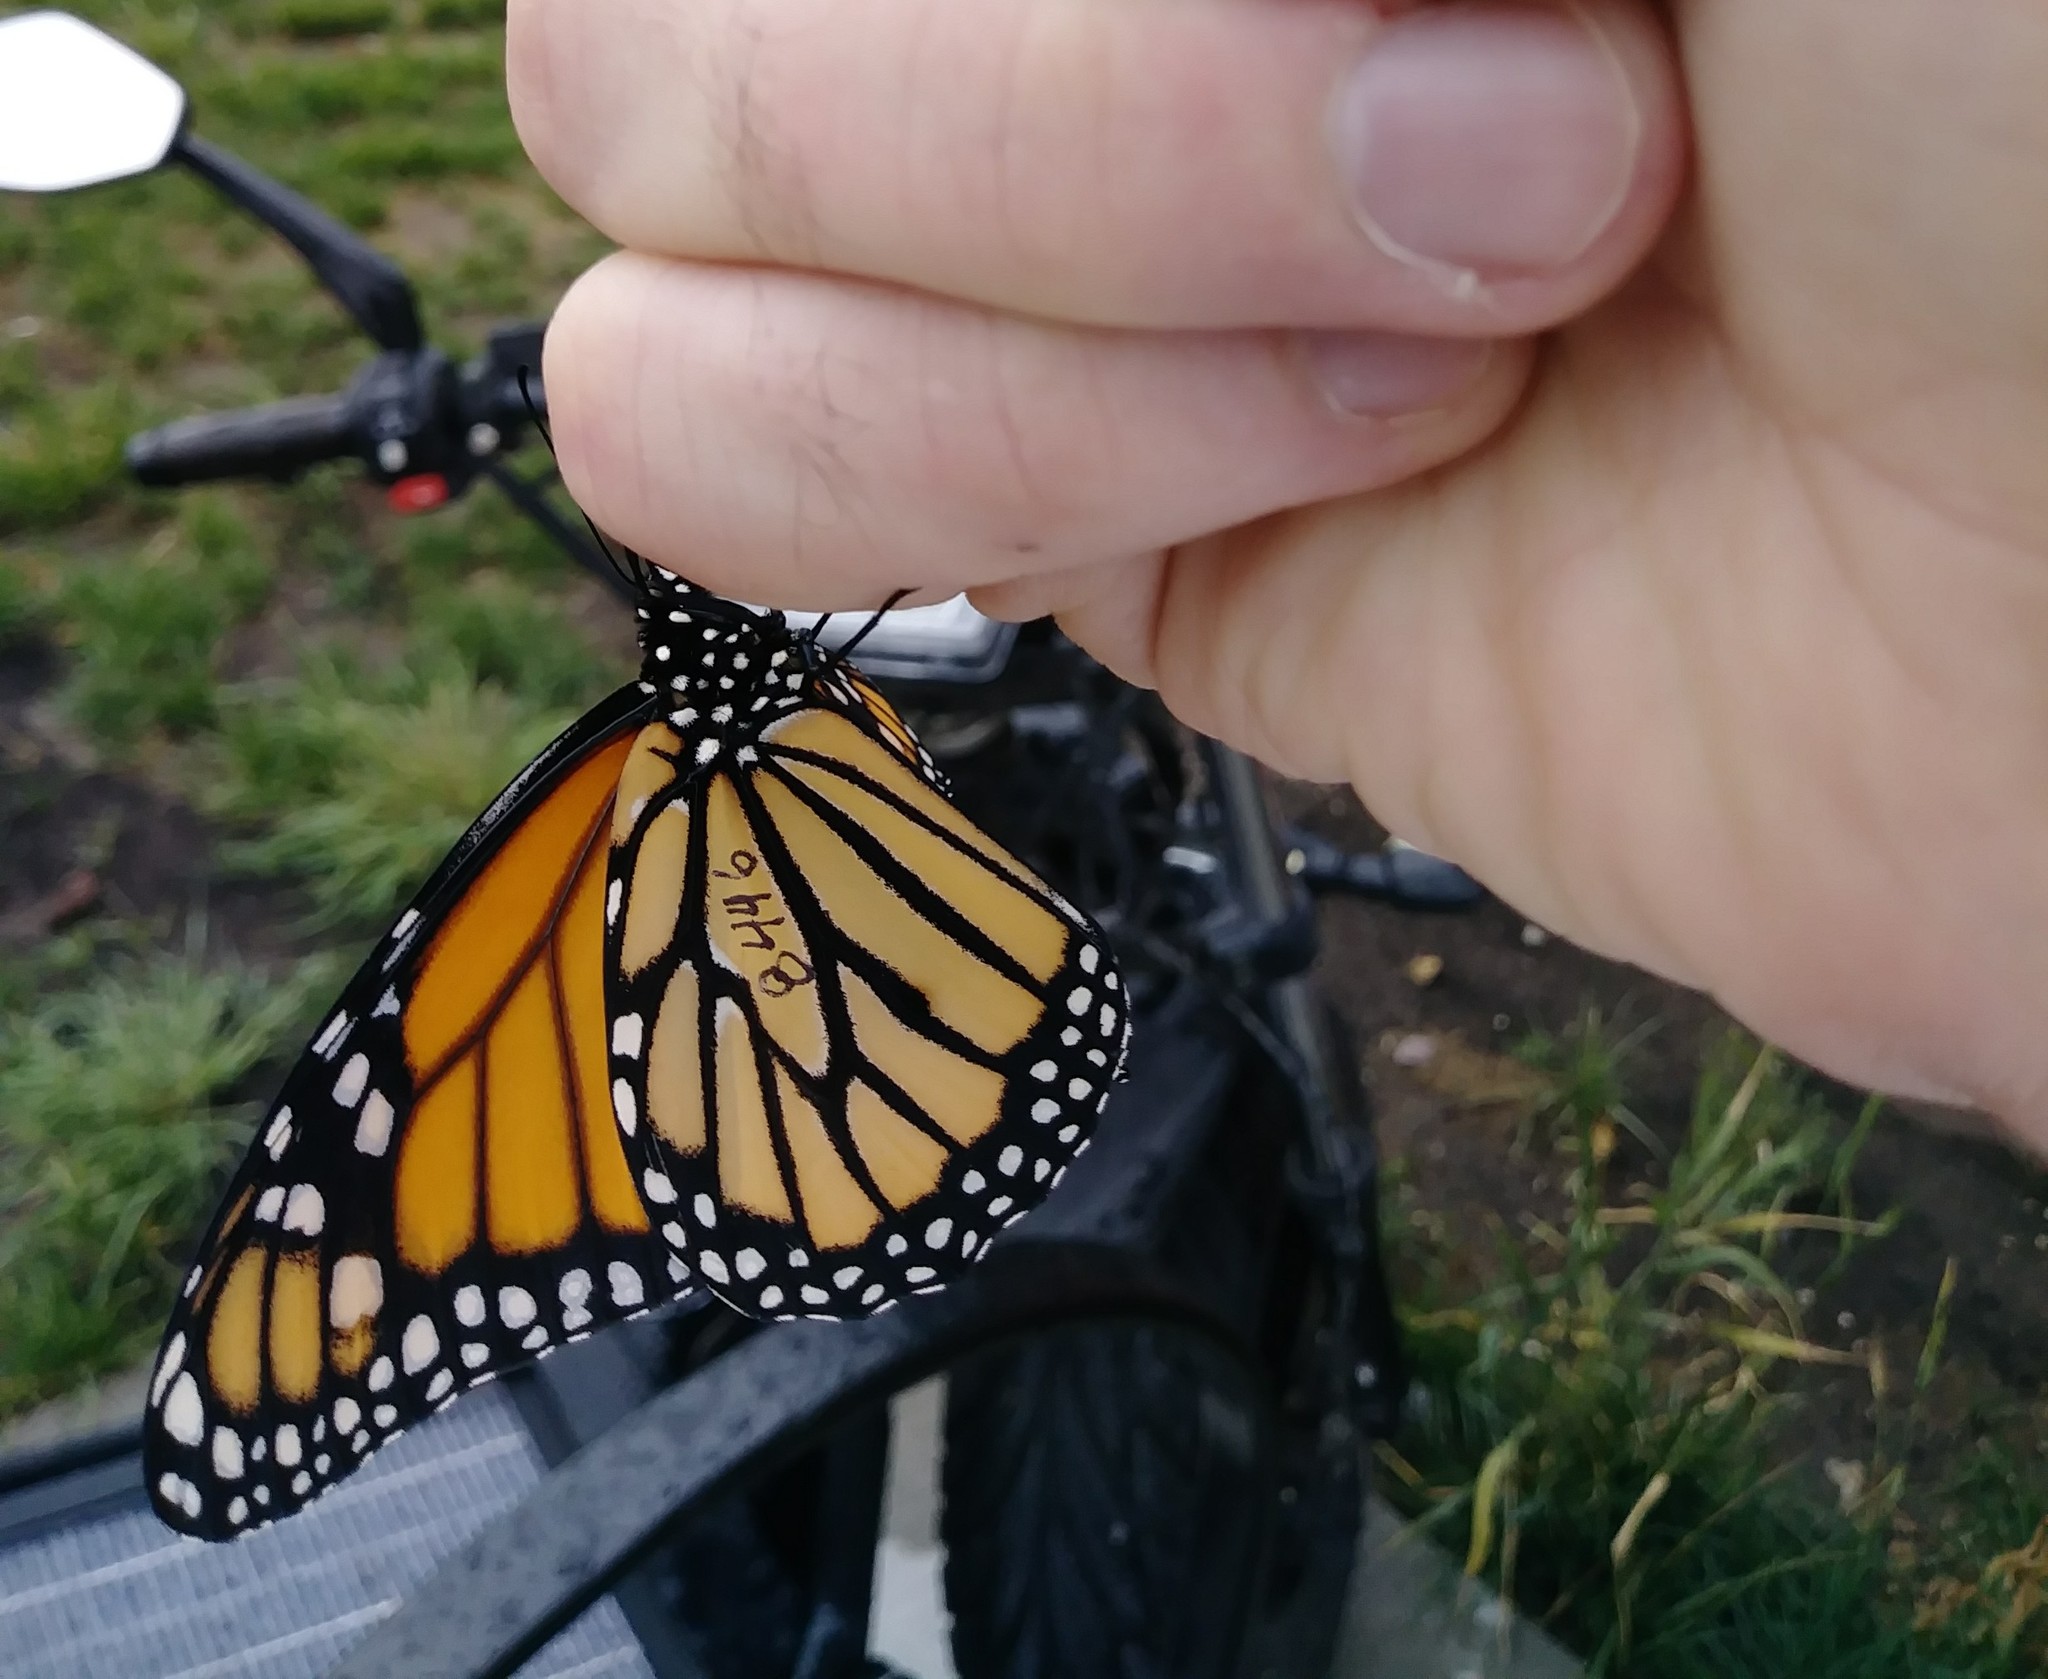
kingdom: Animalia
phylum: Arthropoda
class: Insecta
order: Lepidoptera
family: Nymphalidae
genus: Danaus
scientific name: Danaus plexippus
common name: Monarch
